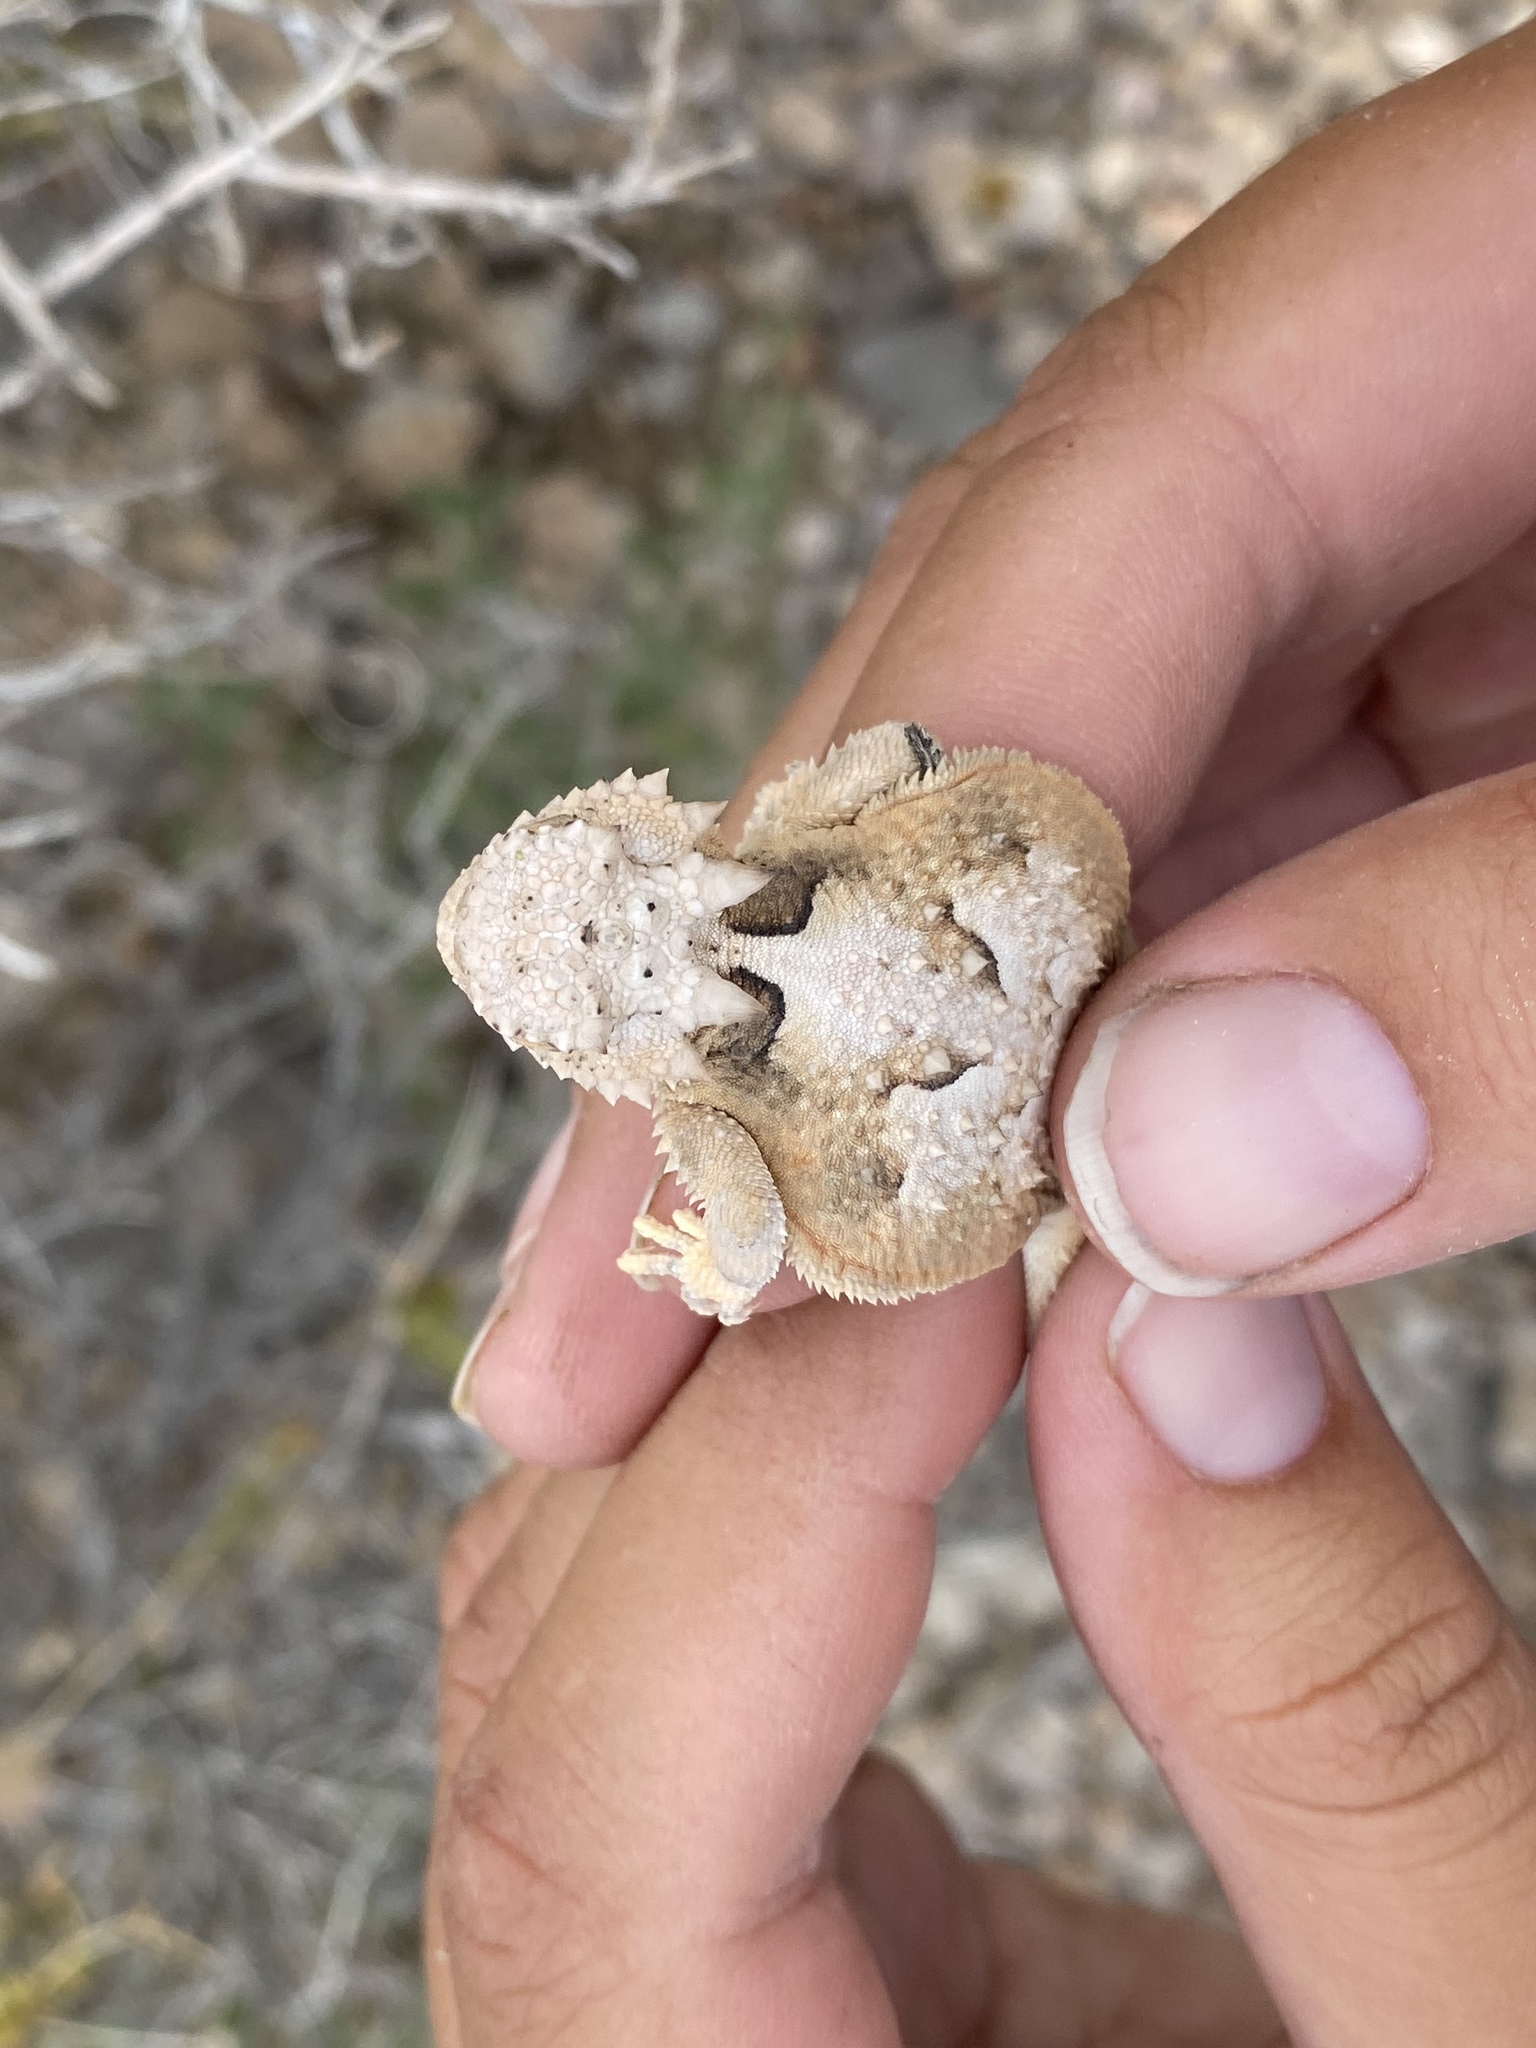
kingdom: Animalia
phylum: Chordata
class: Squamata
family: Phrynosomatidae
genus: Phrynosoma
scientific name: Phrynosoma platyrhinos
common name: Desert horned lizard
